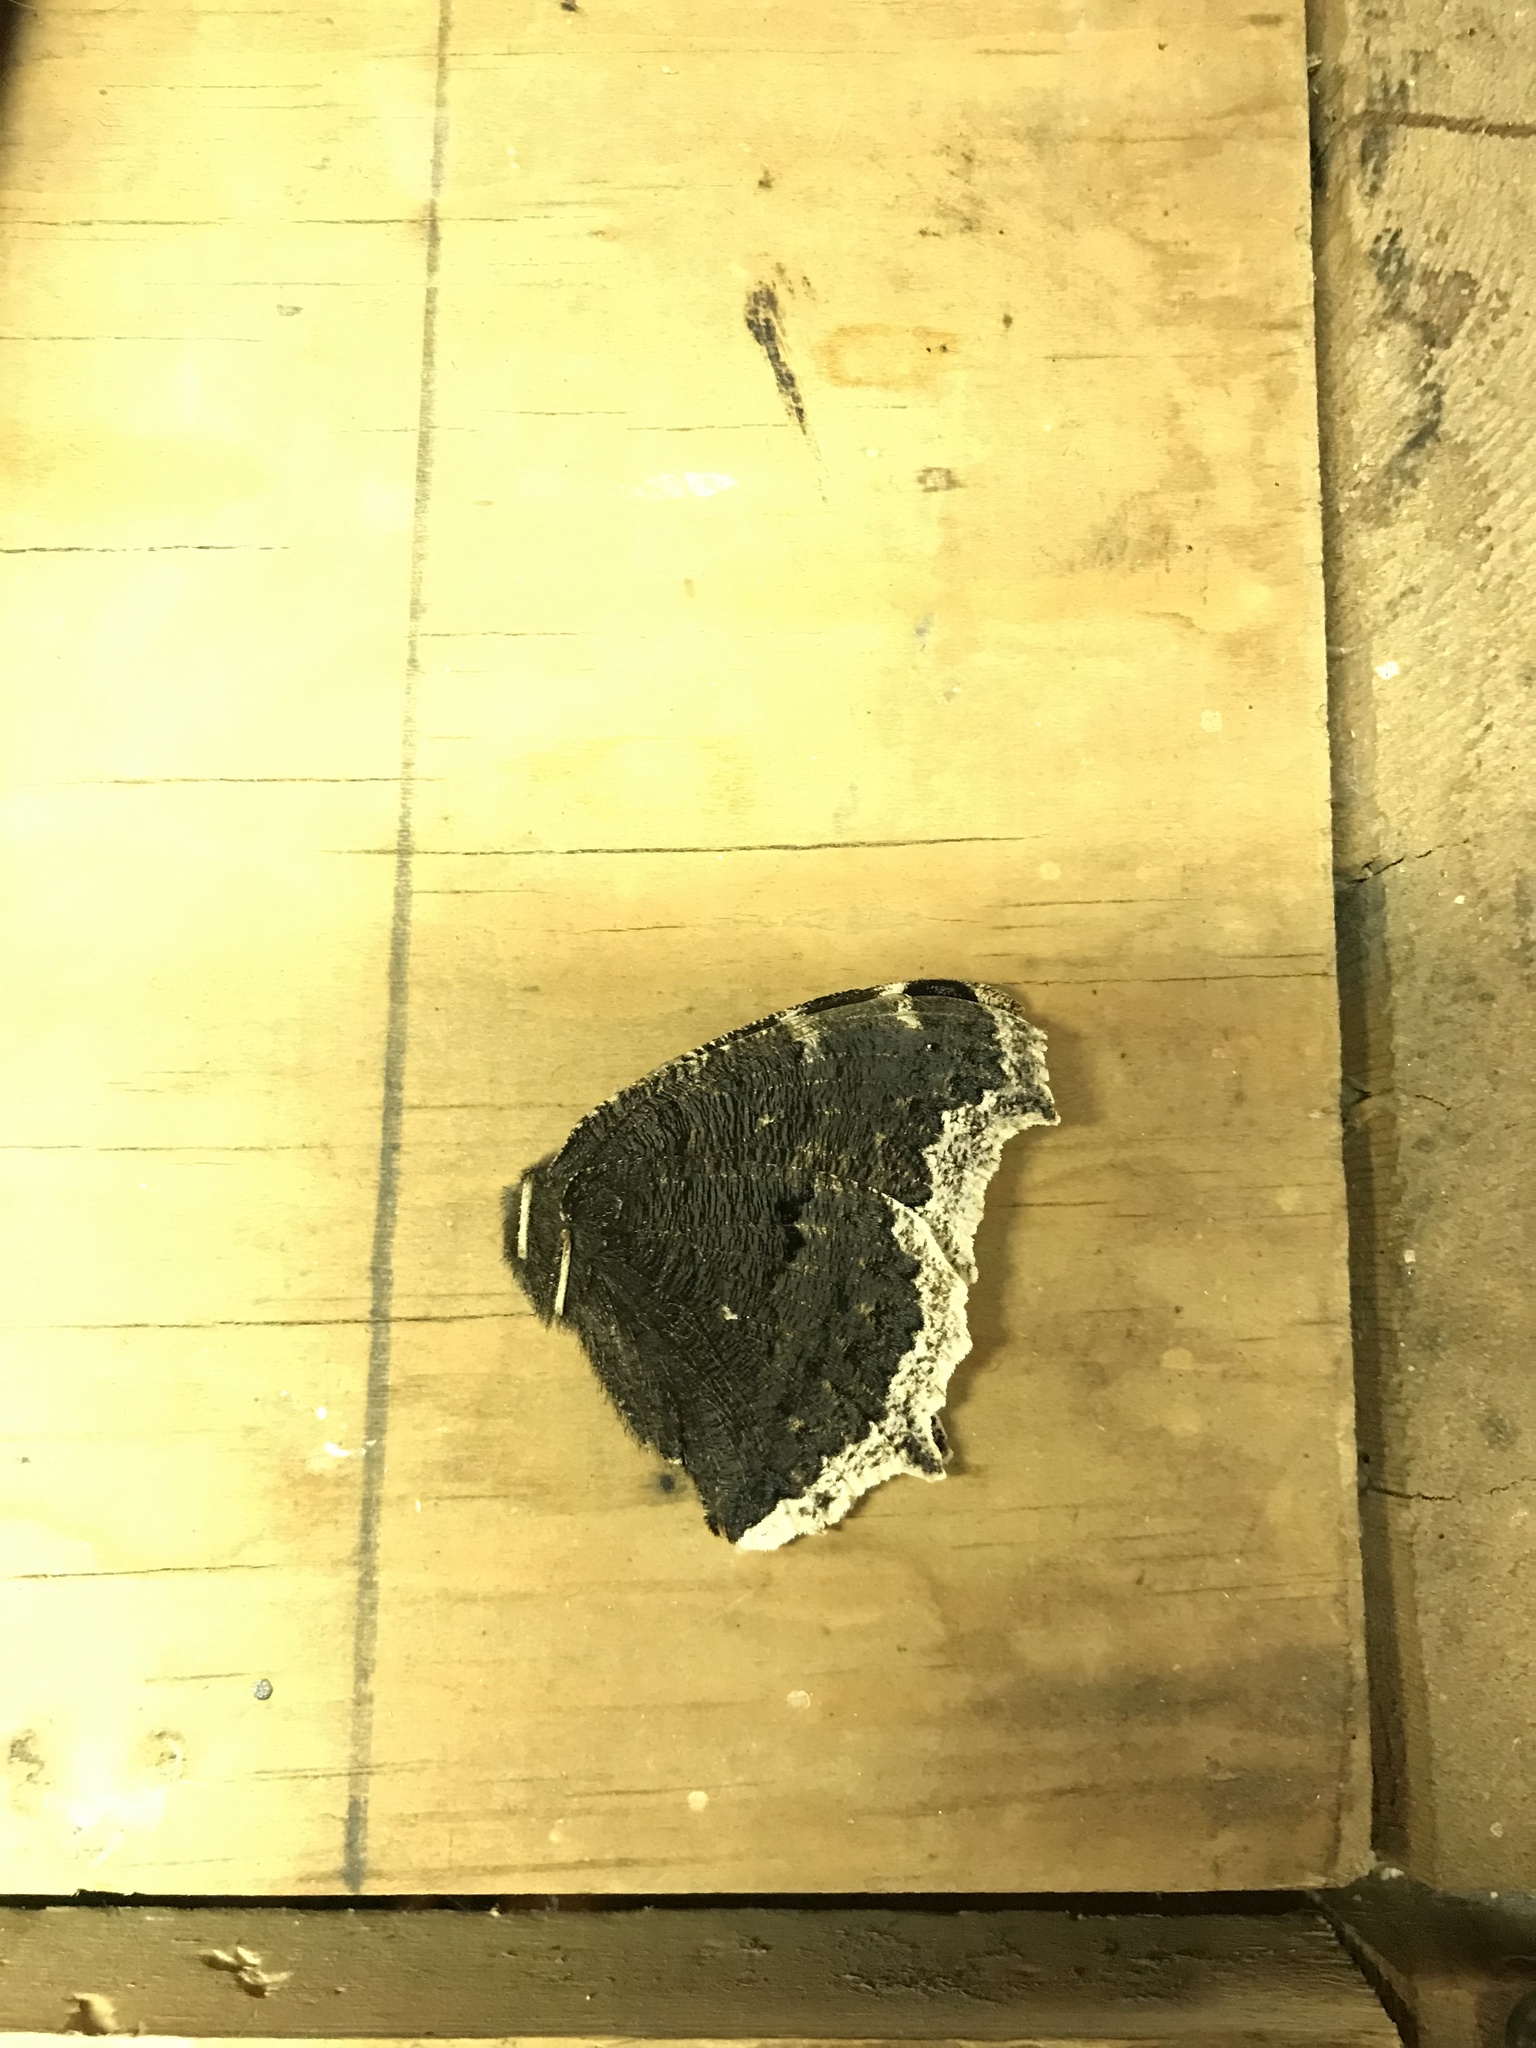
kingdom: Animalia
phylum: Arthropoda
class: Insecta
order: Lepidoptera
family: Nymphalidae
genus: Nymphalis
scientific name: Nymphalis antiopa
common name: Camberwell beauty
